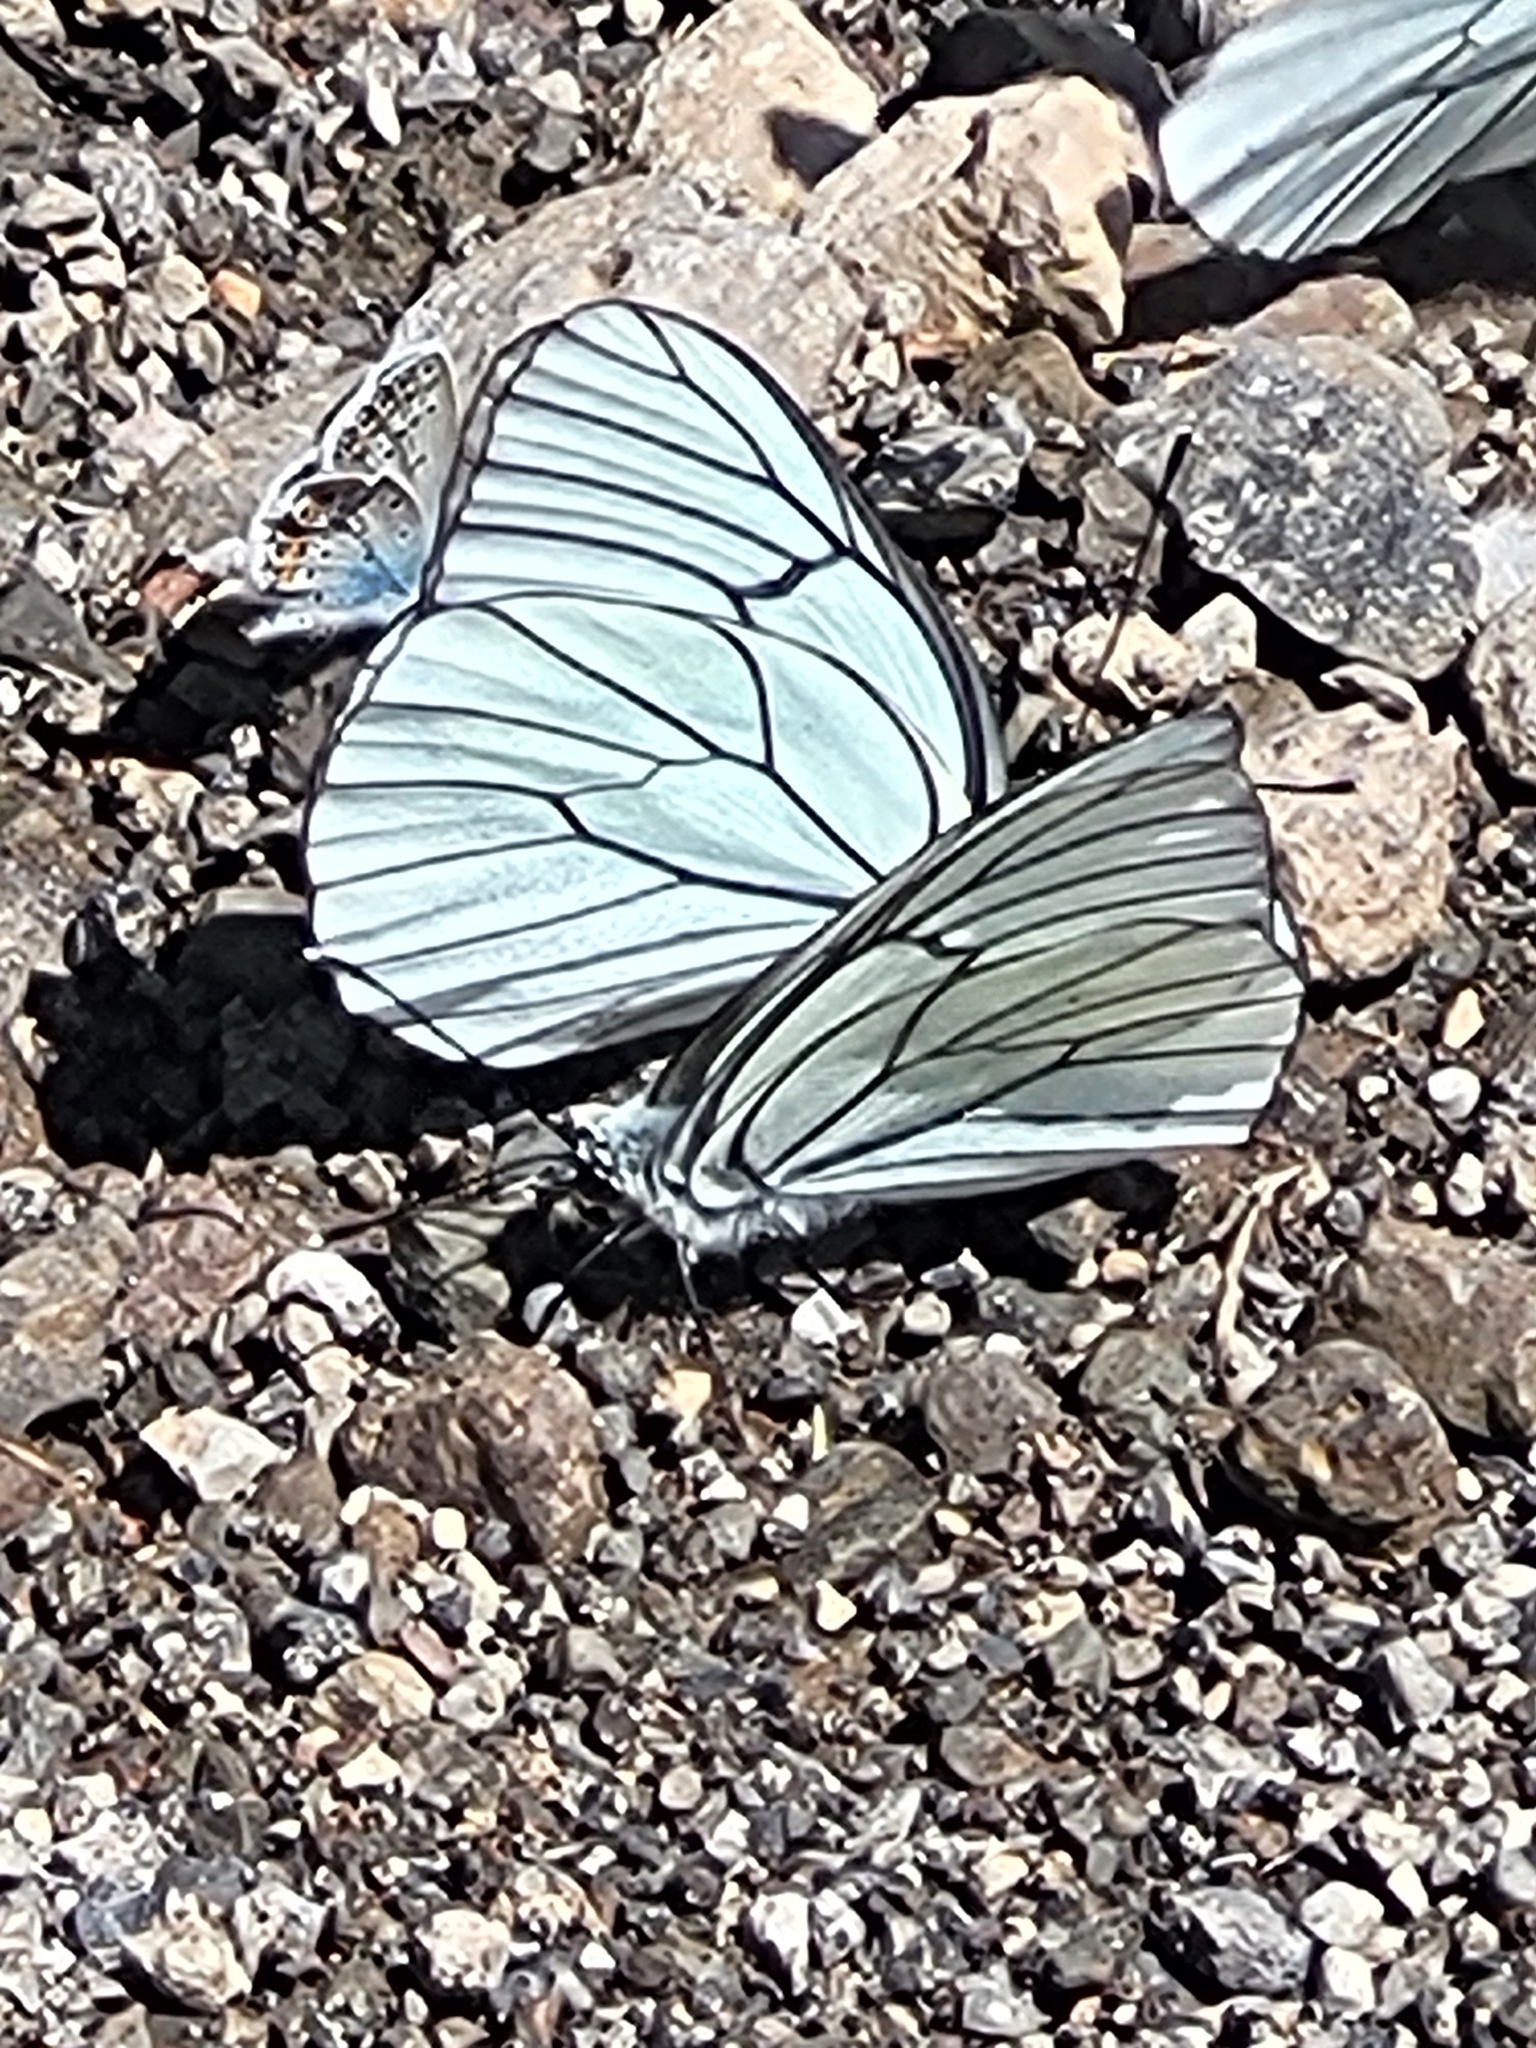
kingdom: Animalia
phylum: Arthropoda
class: Insecta
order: Lepidoptera
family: Pieridae
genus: Aporia
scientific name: Aporia crataegi
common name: Black-veined white
